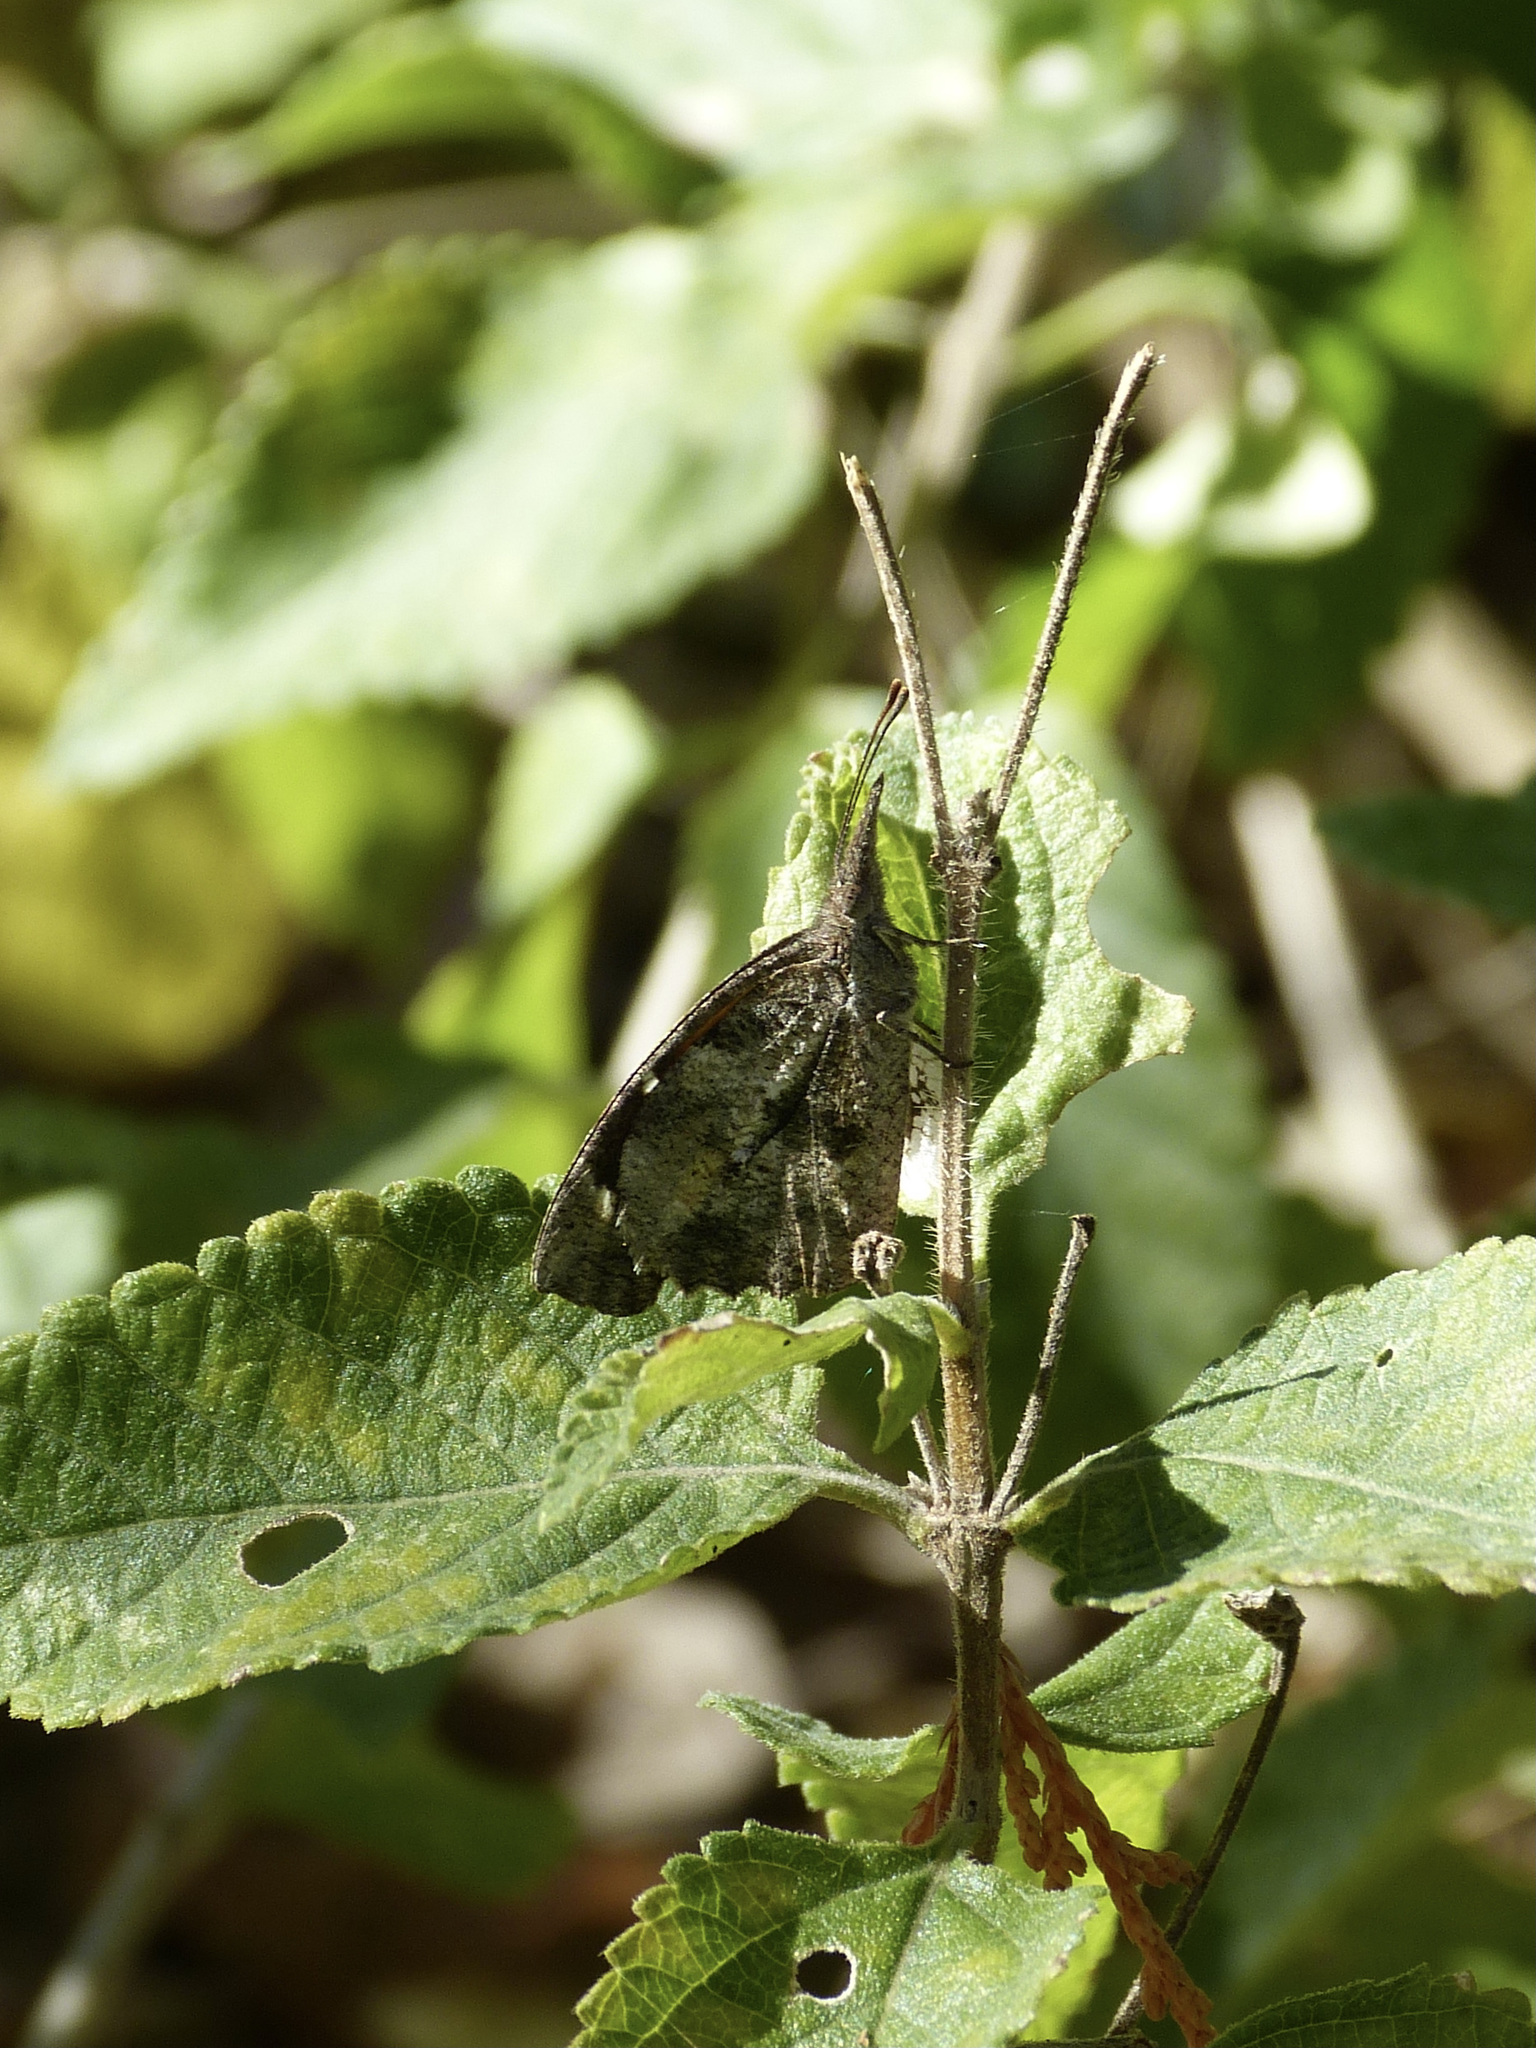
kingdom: Animalia
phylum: Arthropoda
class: Insecta
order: Lepidoptera
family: Nymphalidae
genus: Libytheana
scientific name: Libytheana carinenta
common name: American snout
